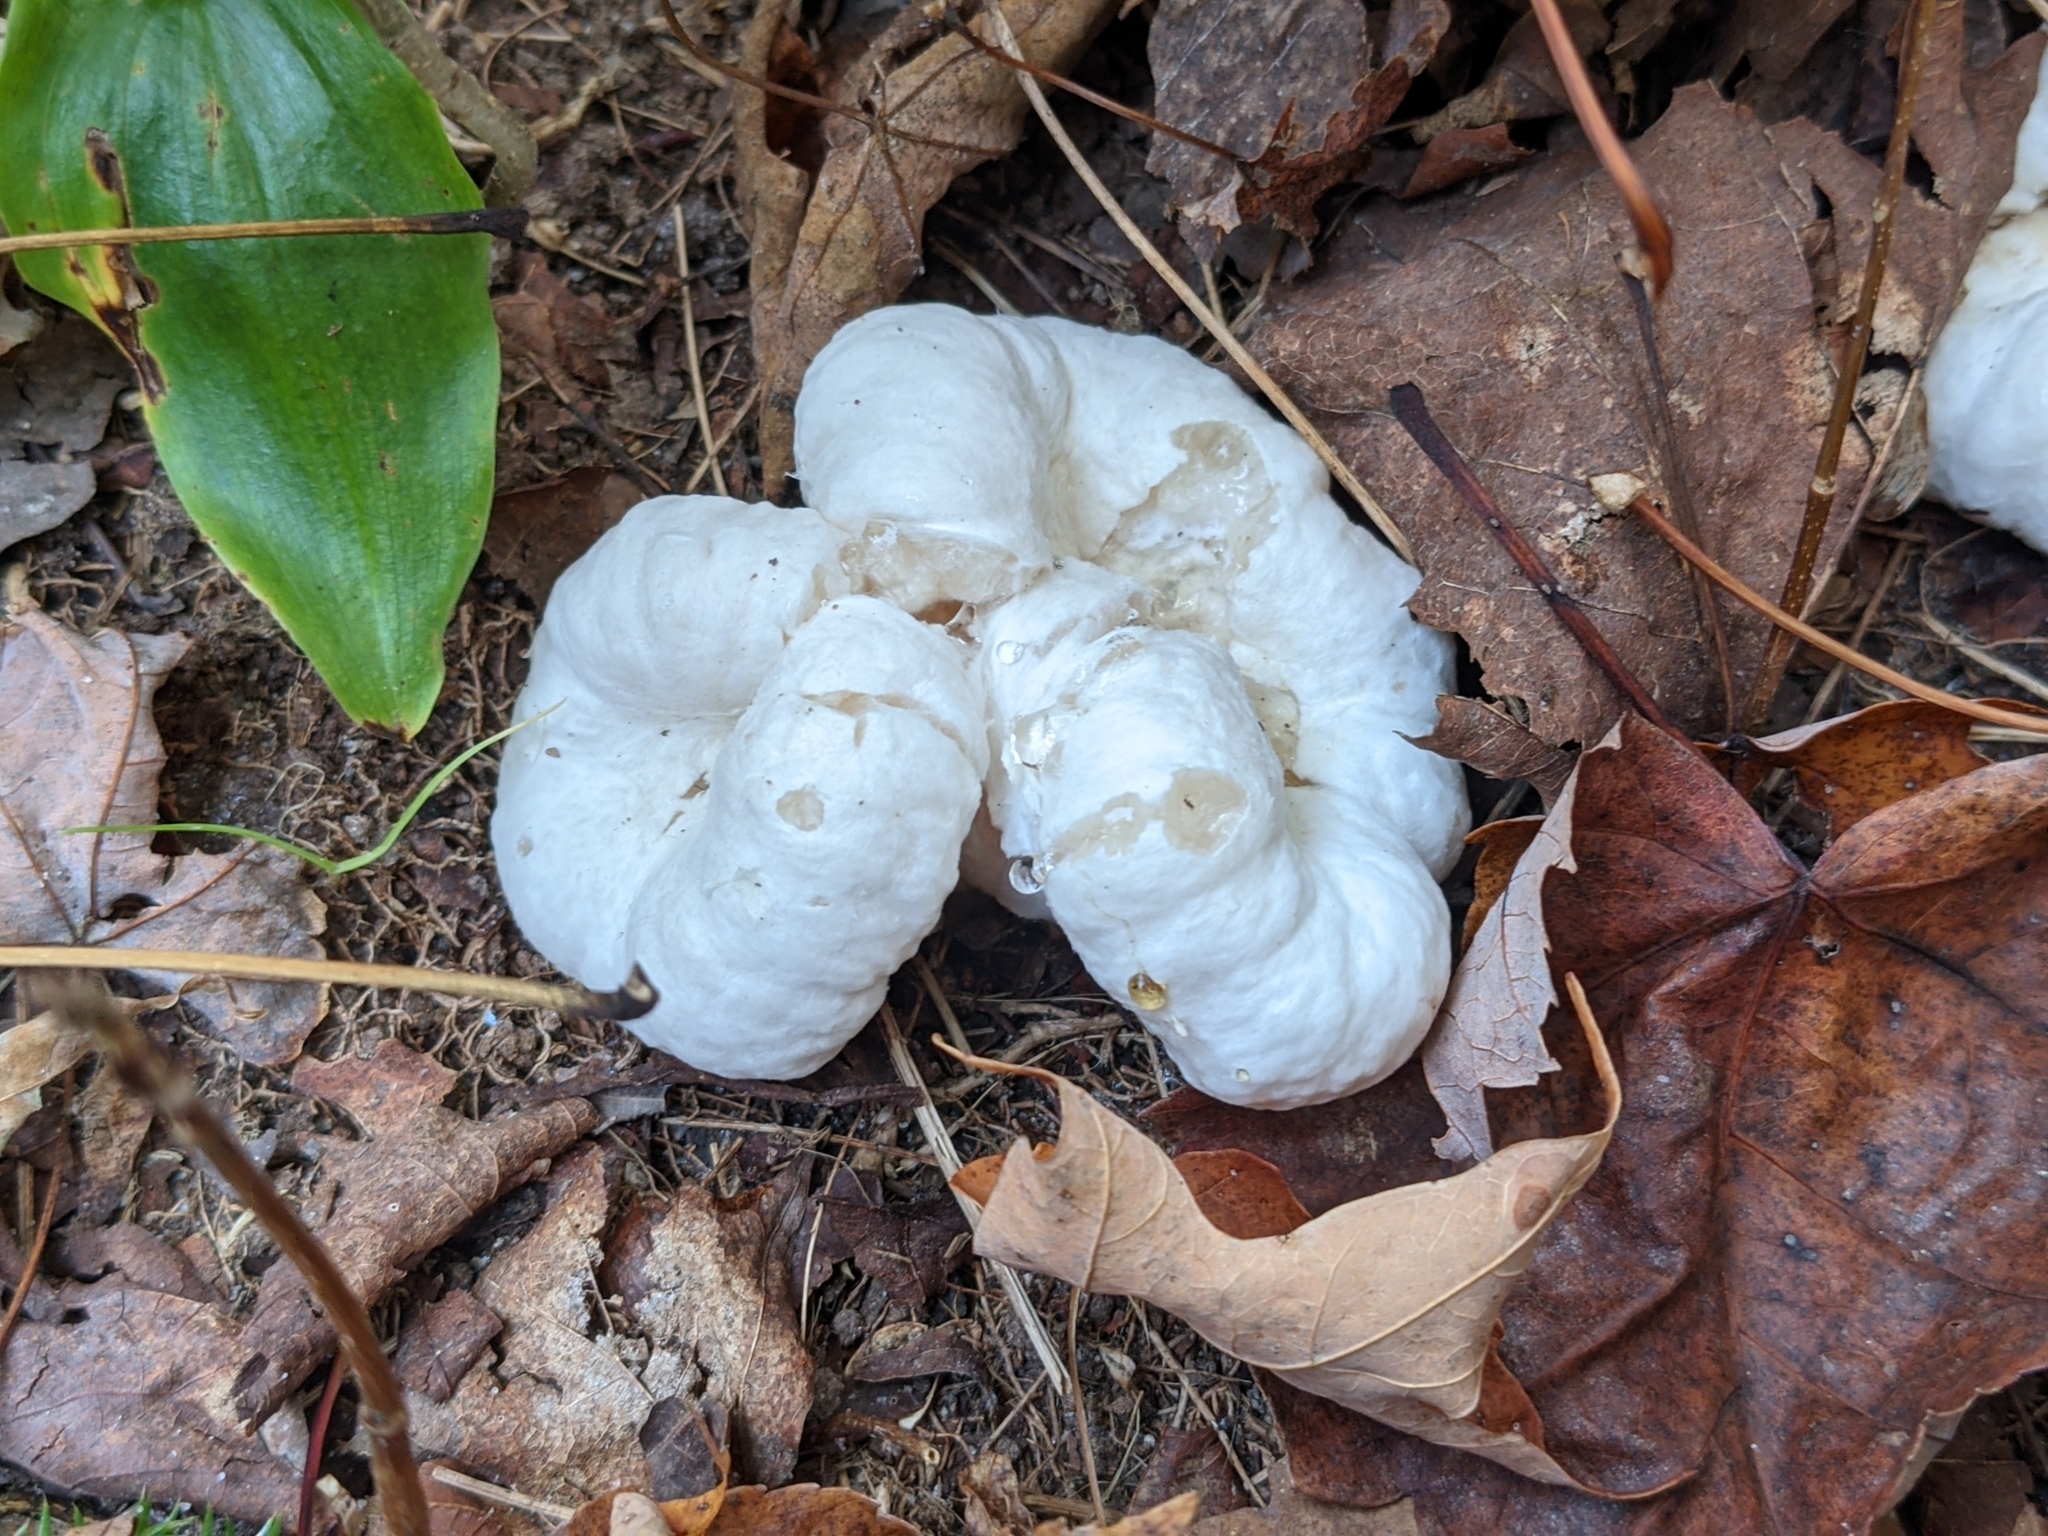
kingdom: Fungi
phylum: Basidiomycota
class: Agaricomycetes
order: Agaricales
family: Entolomataceae
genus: Entoloma
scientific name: Entoloma abortivum
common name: Aborted entoloma
